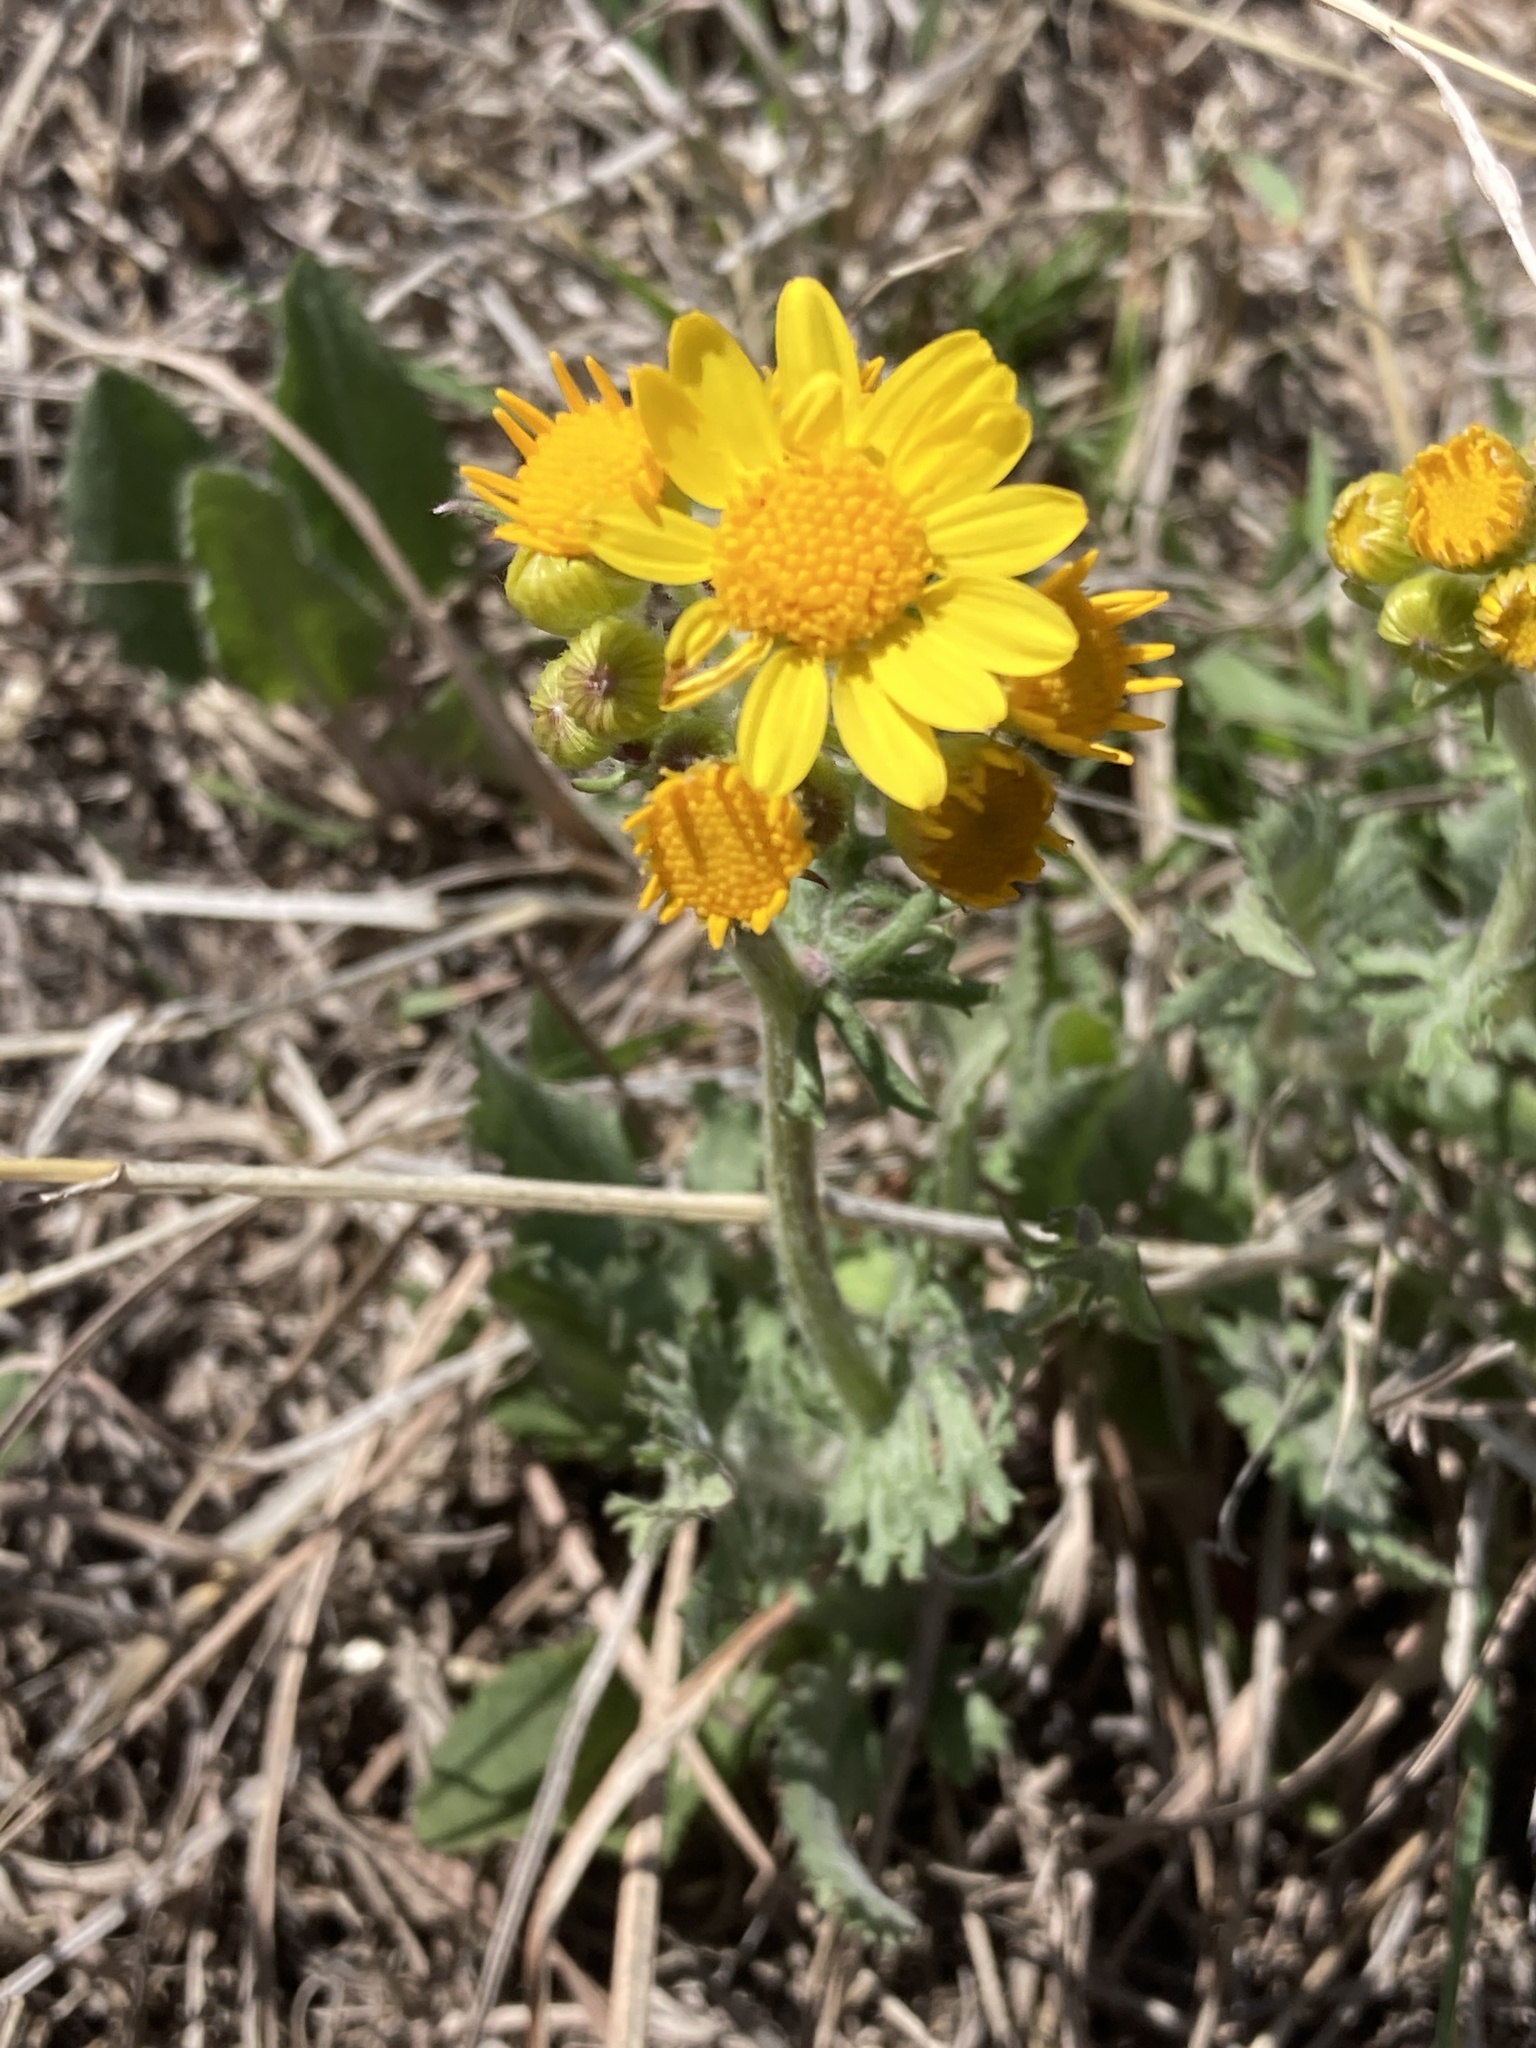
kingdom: Plantae
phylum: Tracheophyta
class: Magnoliopsida
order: Asterales
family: Asteraceae
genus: Packera
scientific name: Packera plattensis
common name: Prairie groundsel
